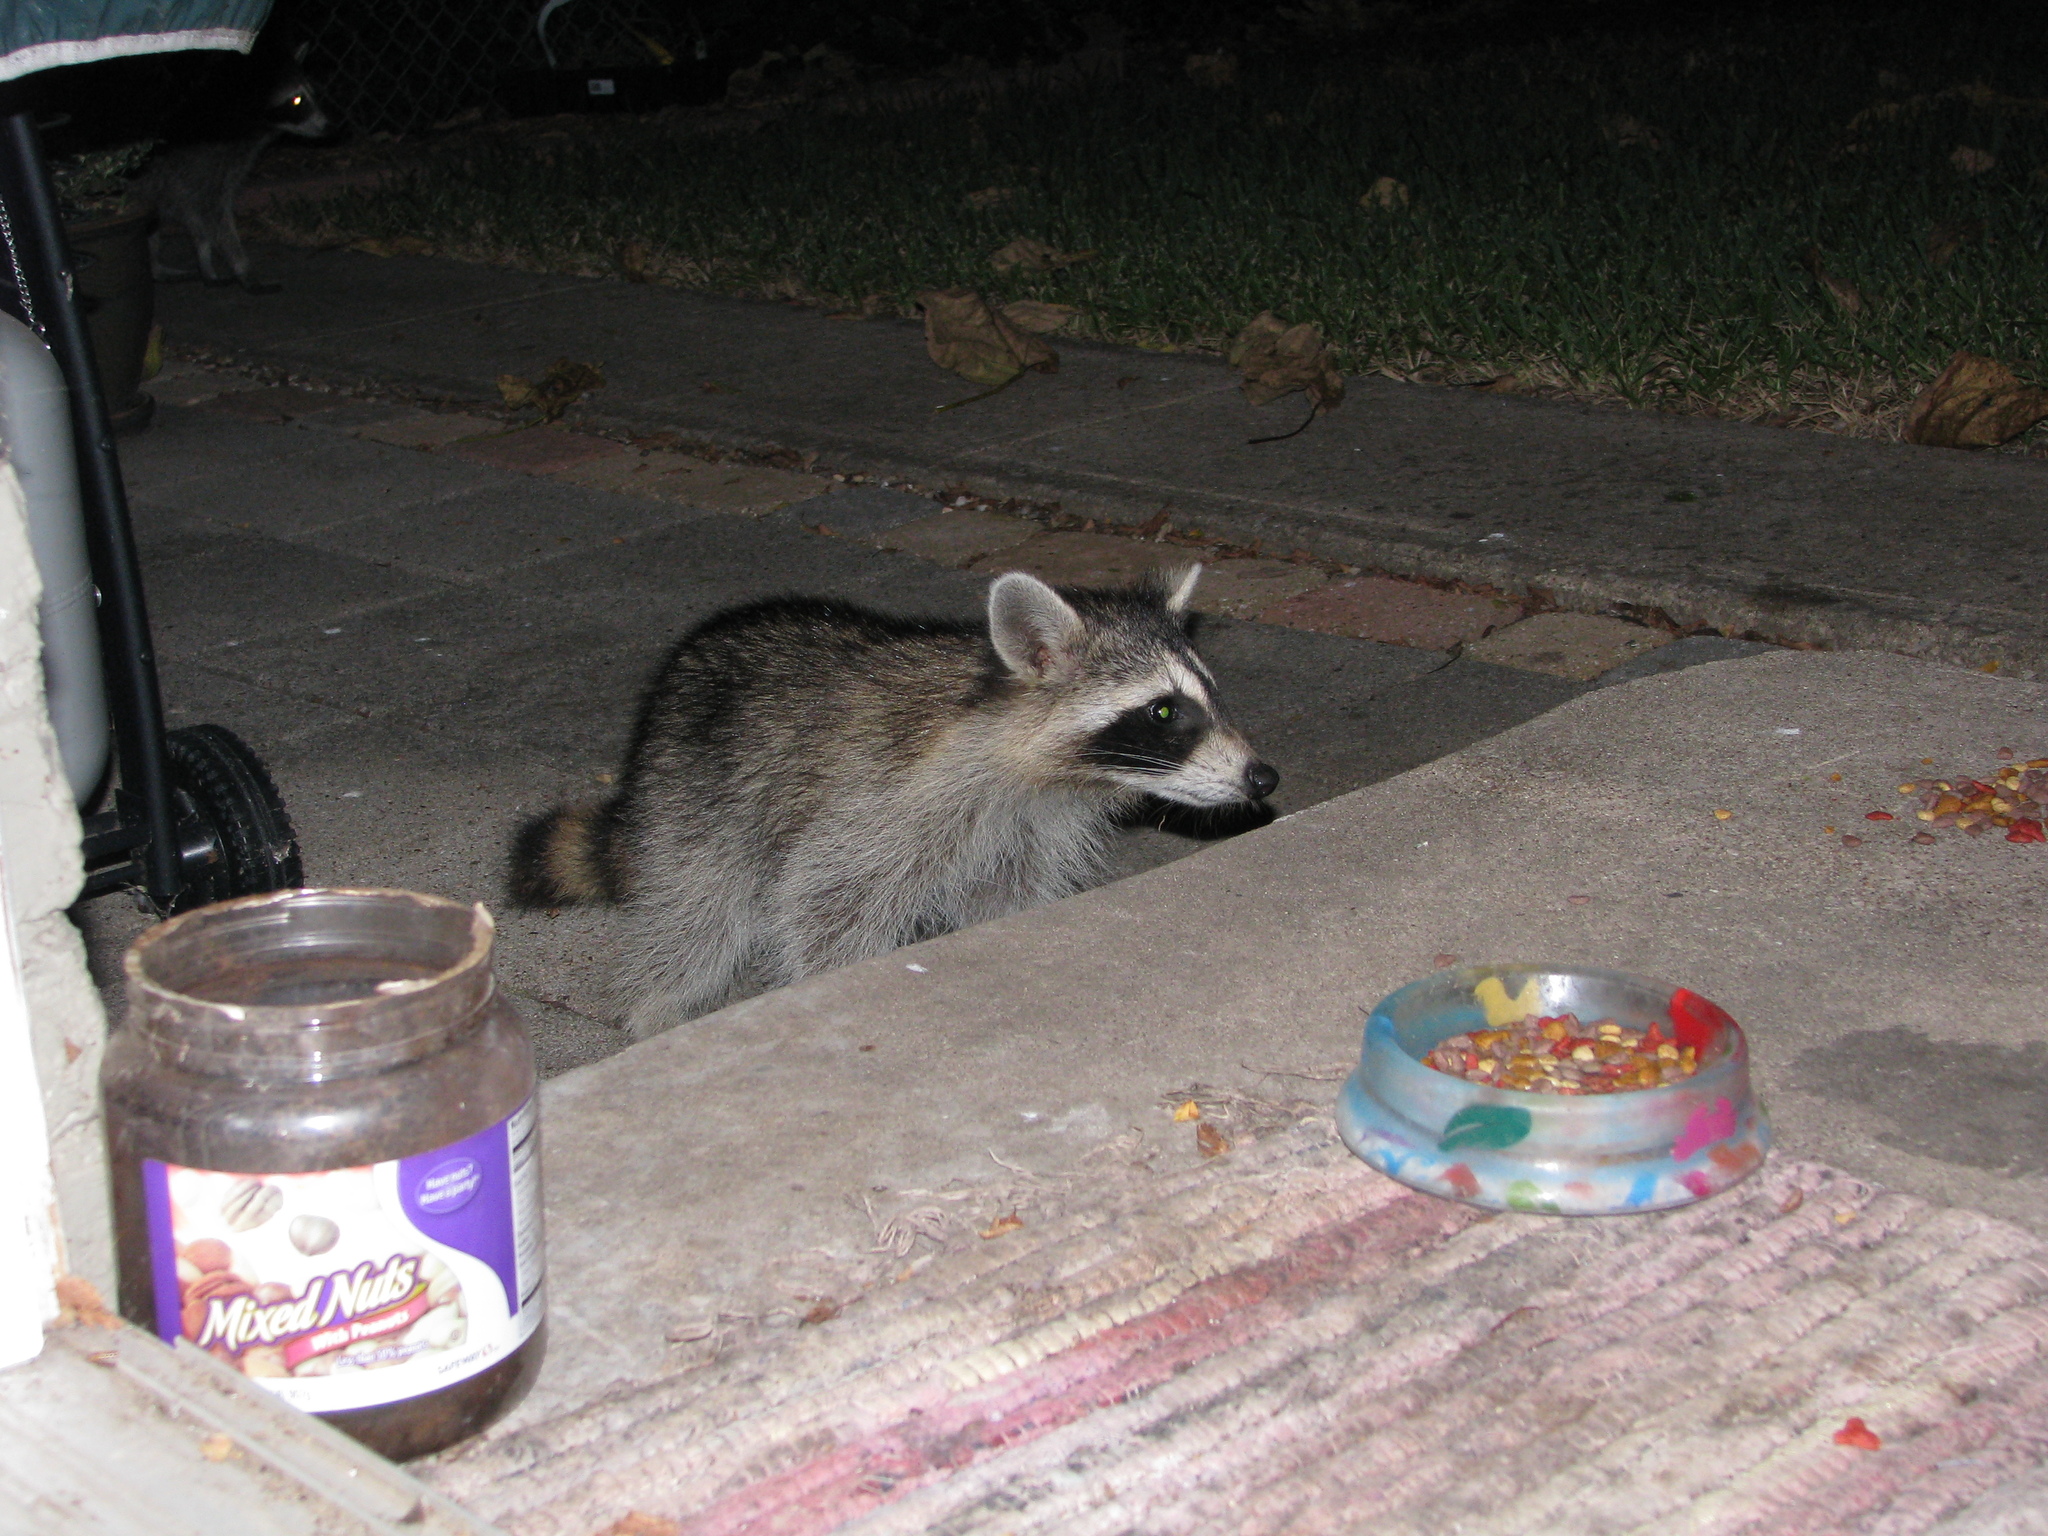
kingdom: Animalia
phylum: Chordata
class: Mammalia
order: Carnivora
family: Procyonidae
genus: Procyon
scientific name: Procyon lotor
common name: Raccoon
